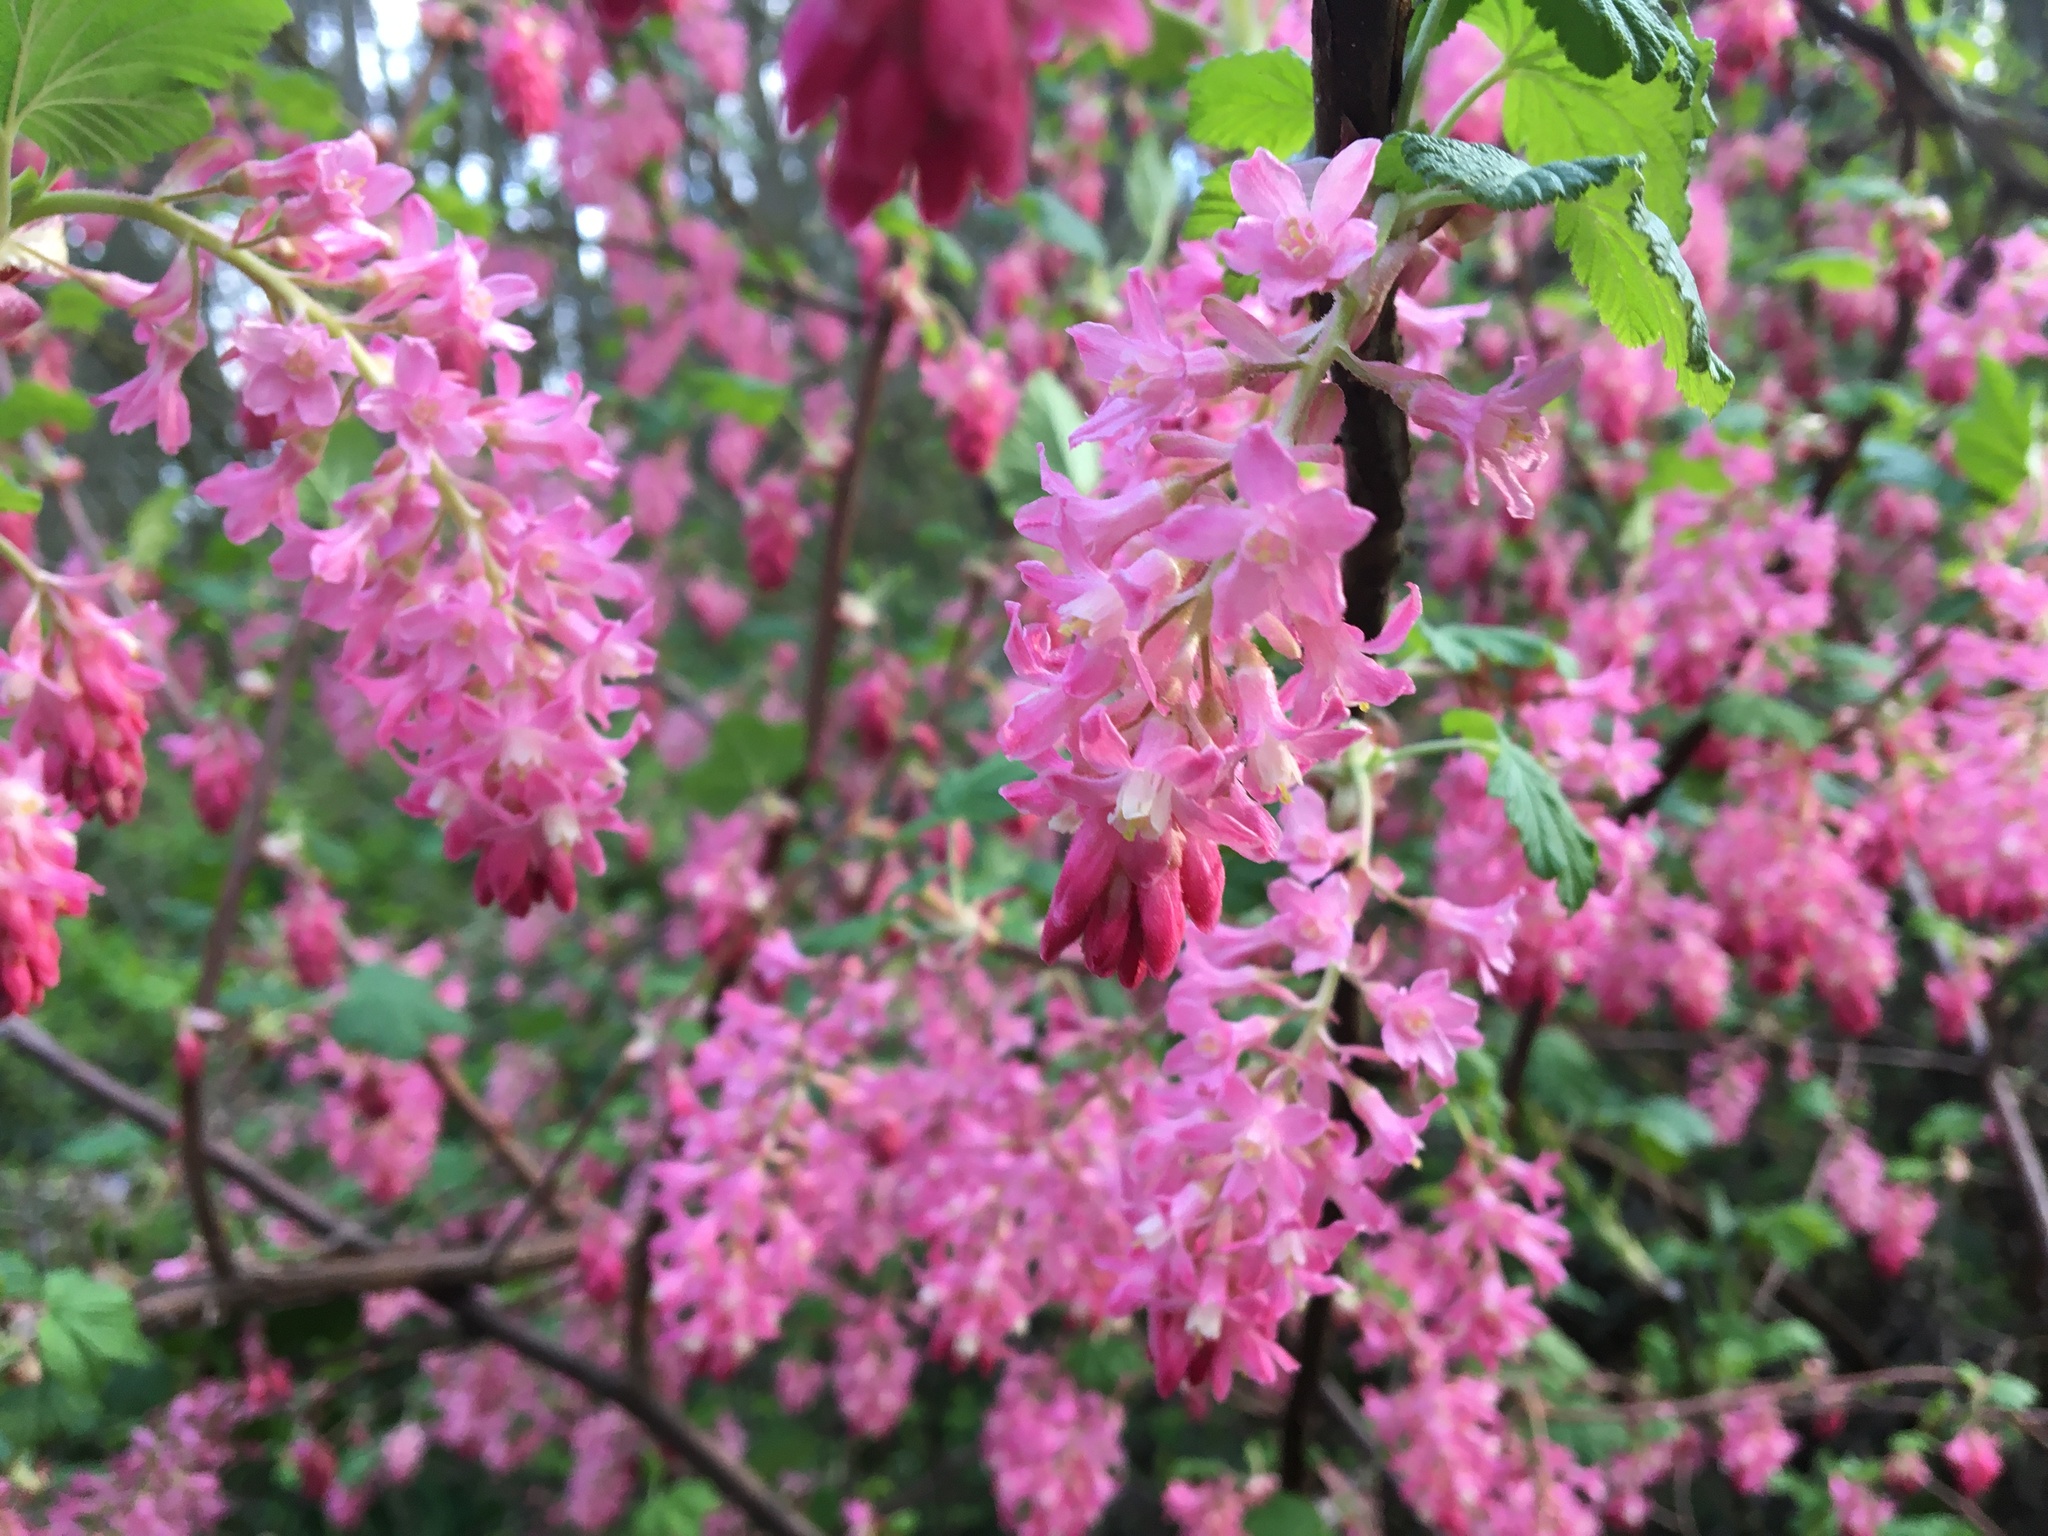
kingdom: Plantae
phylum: Tracheophyta
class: Magnoliopsida
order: Saxifragales
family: Grossulariaceae
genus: Ribes
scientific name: Ribes sanguineum
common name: Flowering currant
